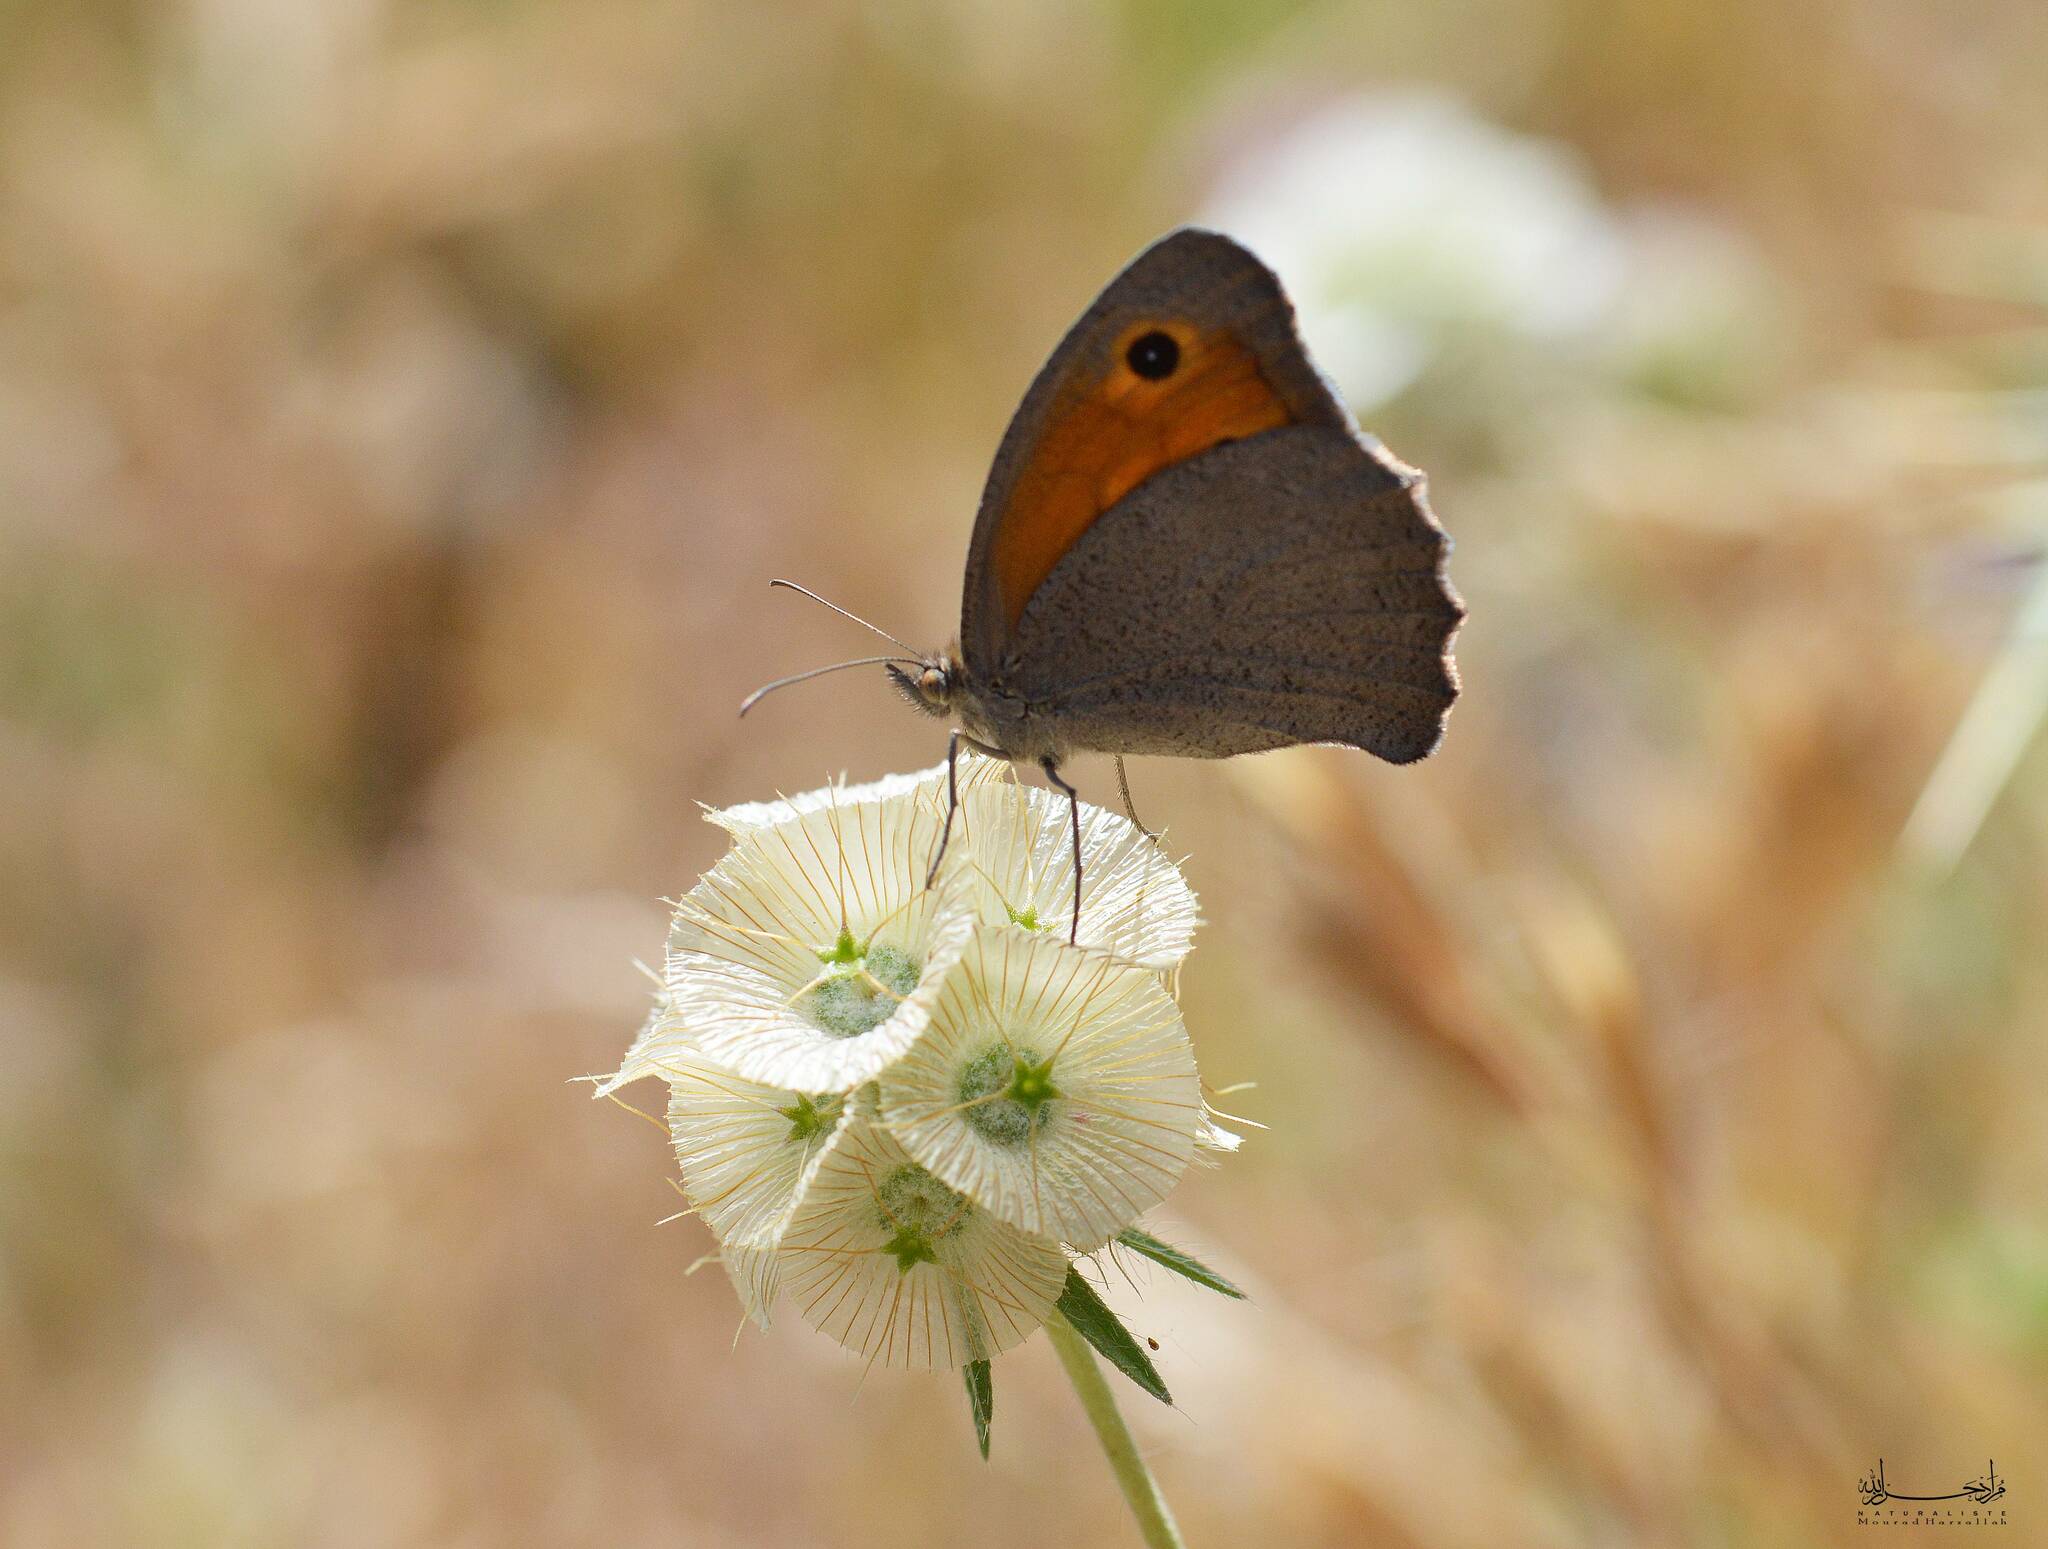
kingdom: Animalia
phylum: Arthropoda
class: Insecta
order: Lepidoptera
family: Nymphalidae
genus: Maniola
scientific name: Maniola jurtina
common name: Meadow brown
